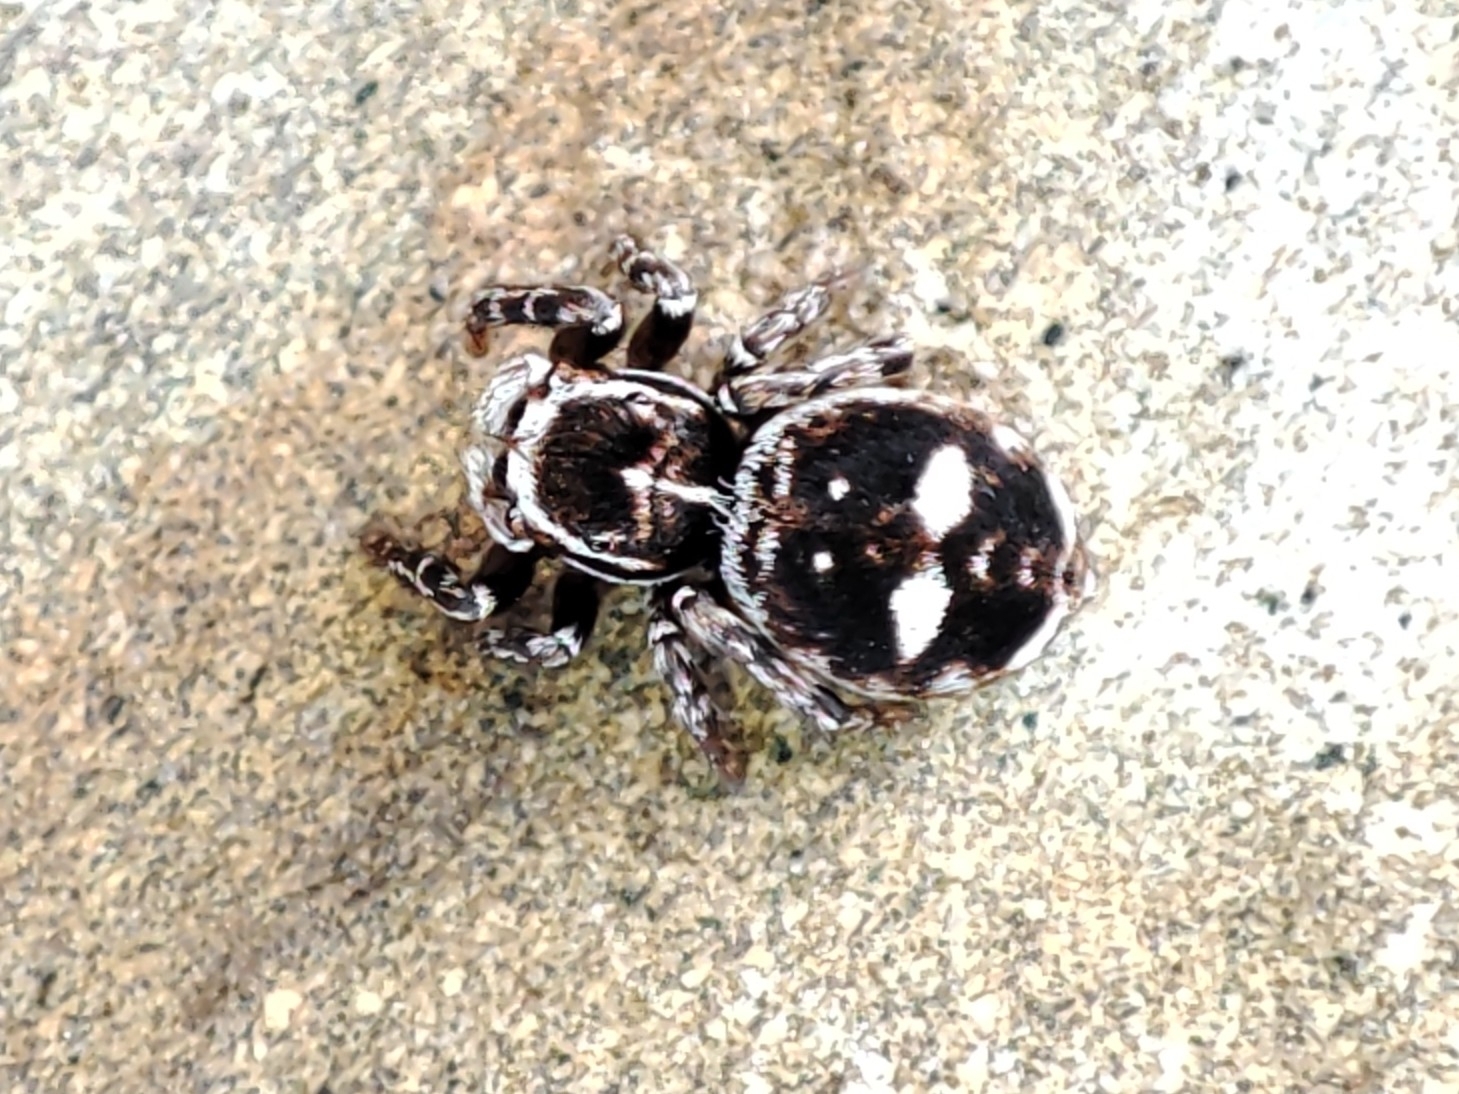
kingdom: Animalia
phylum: Arthropoda
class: Arachnida
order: Araneae
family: Salticidae
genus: Attulus
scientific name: Attulus rupicola
